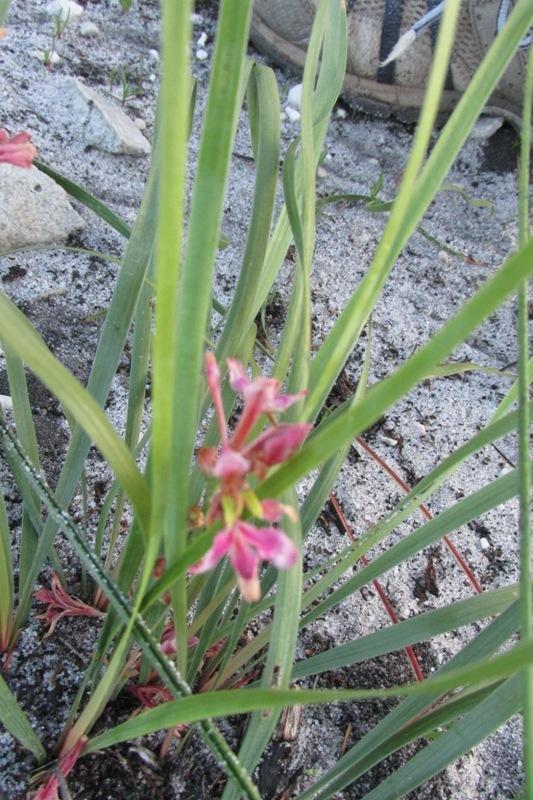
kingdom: Plantae
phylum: Tracheophyta
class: Liliopsida
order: Asparagales
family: Iridaceae
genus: Tritoniopsis
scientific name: Tritoniopsis dodii
